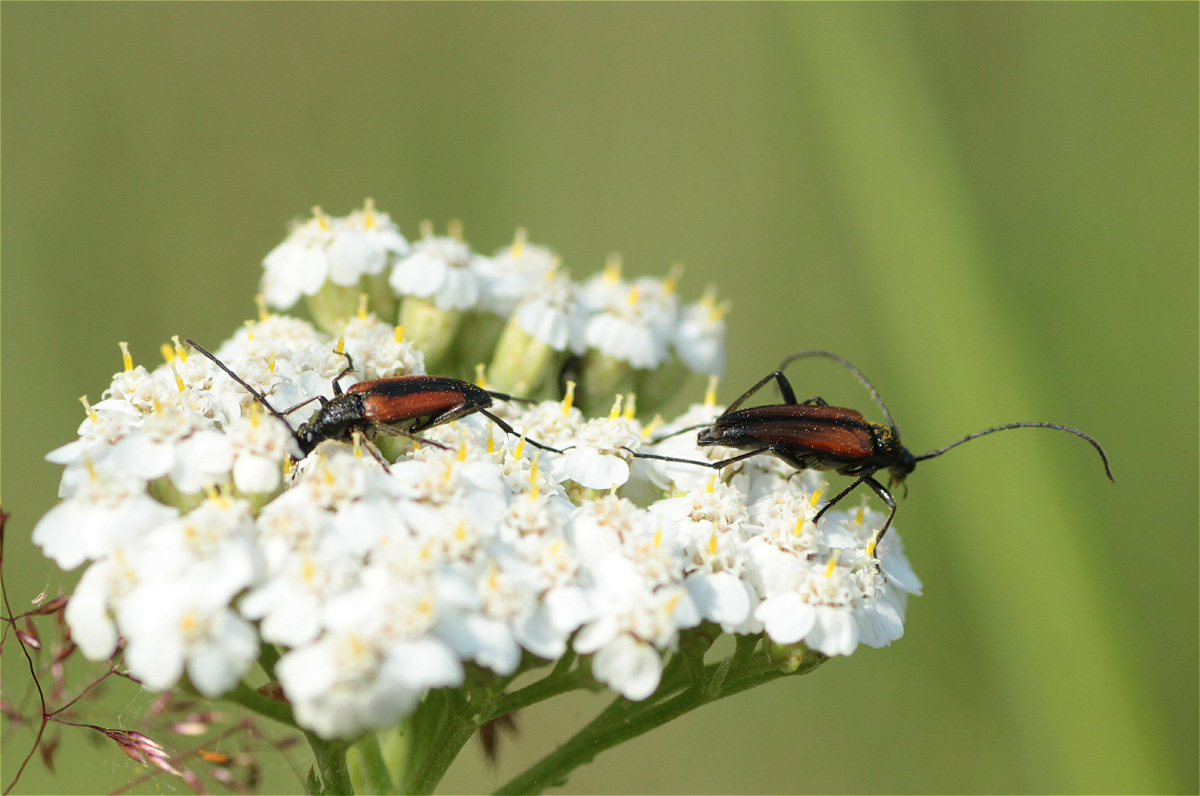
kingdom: Animalia
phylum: Arthropoda
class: Insecta
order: Coleoptera
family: Cerambycidae
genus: Stenurella
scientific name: Stenurella melanura
